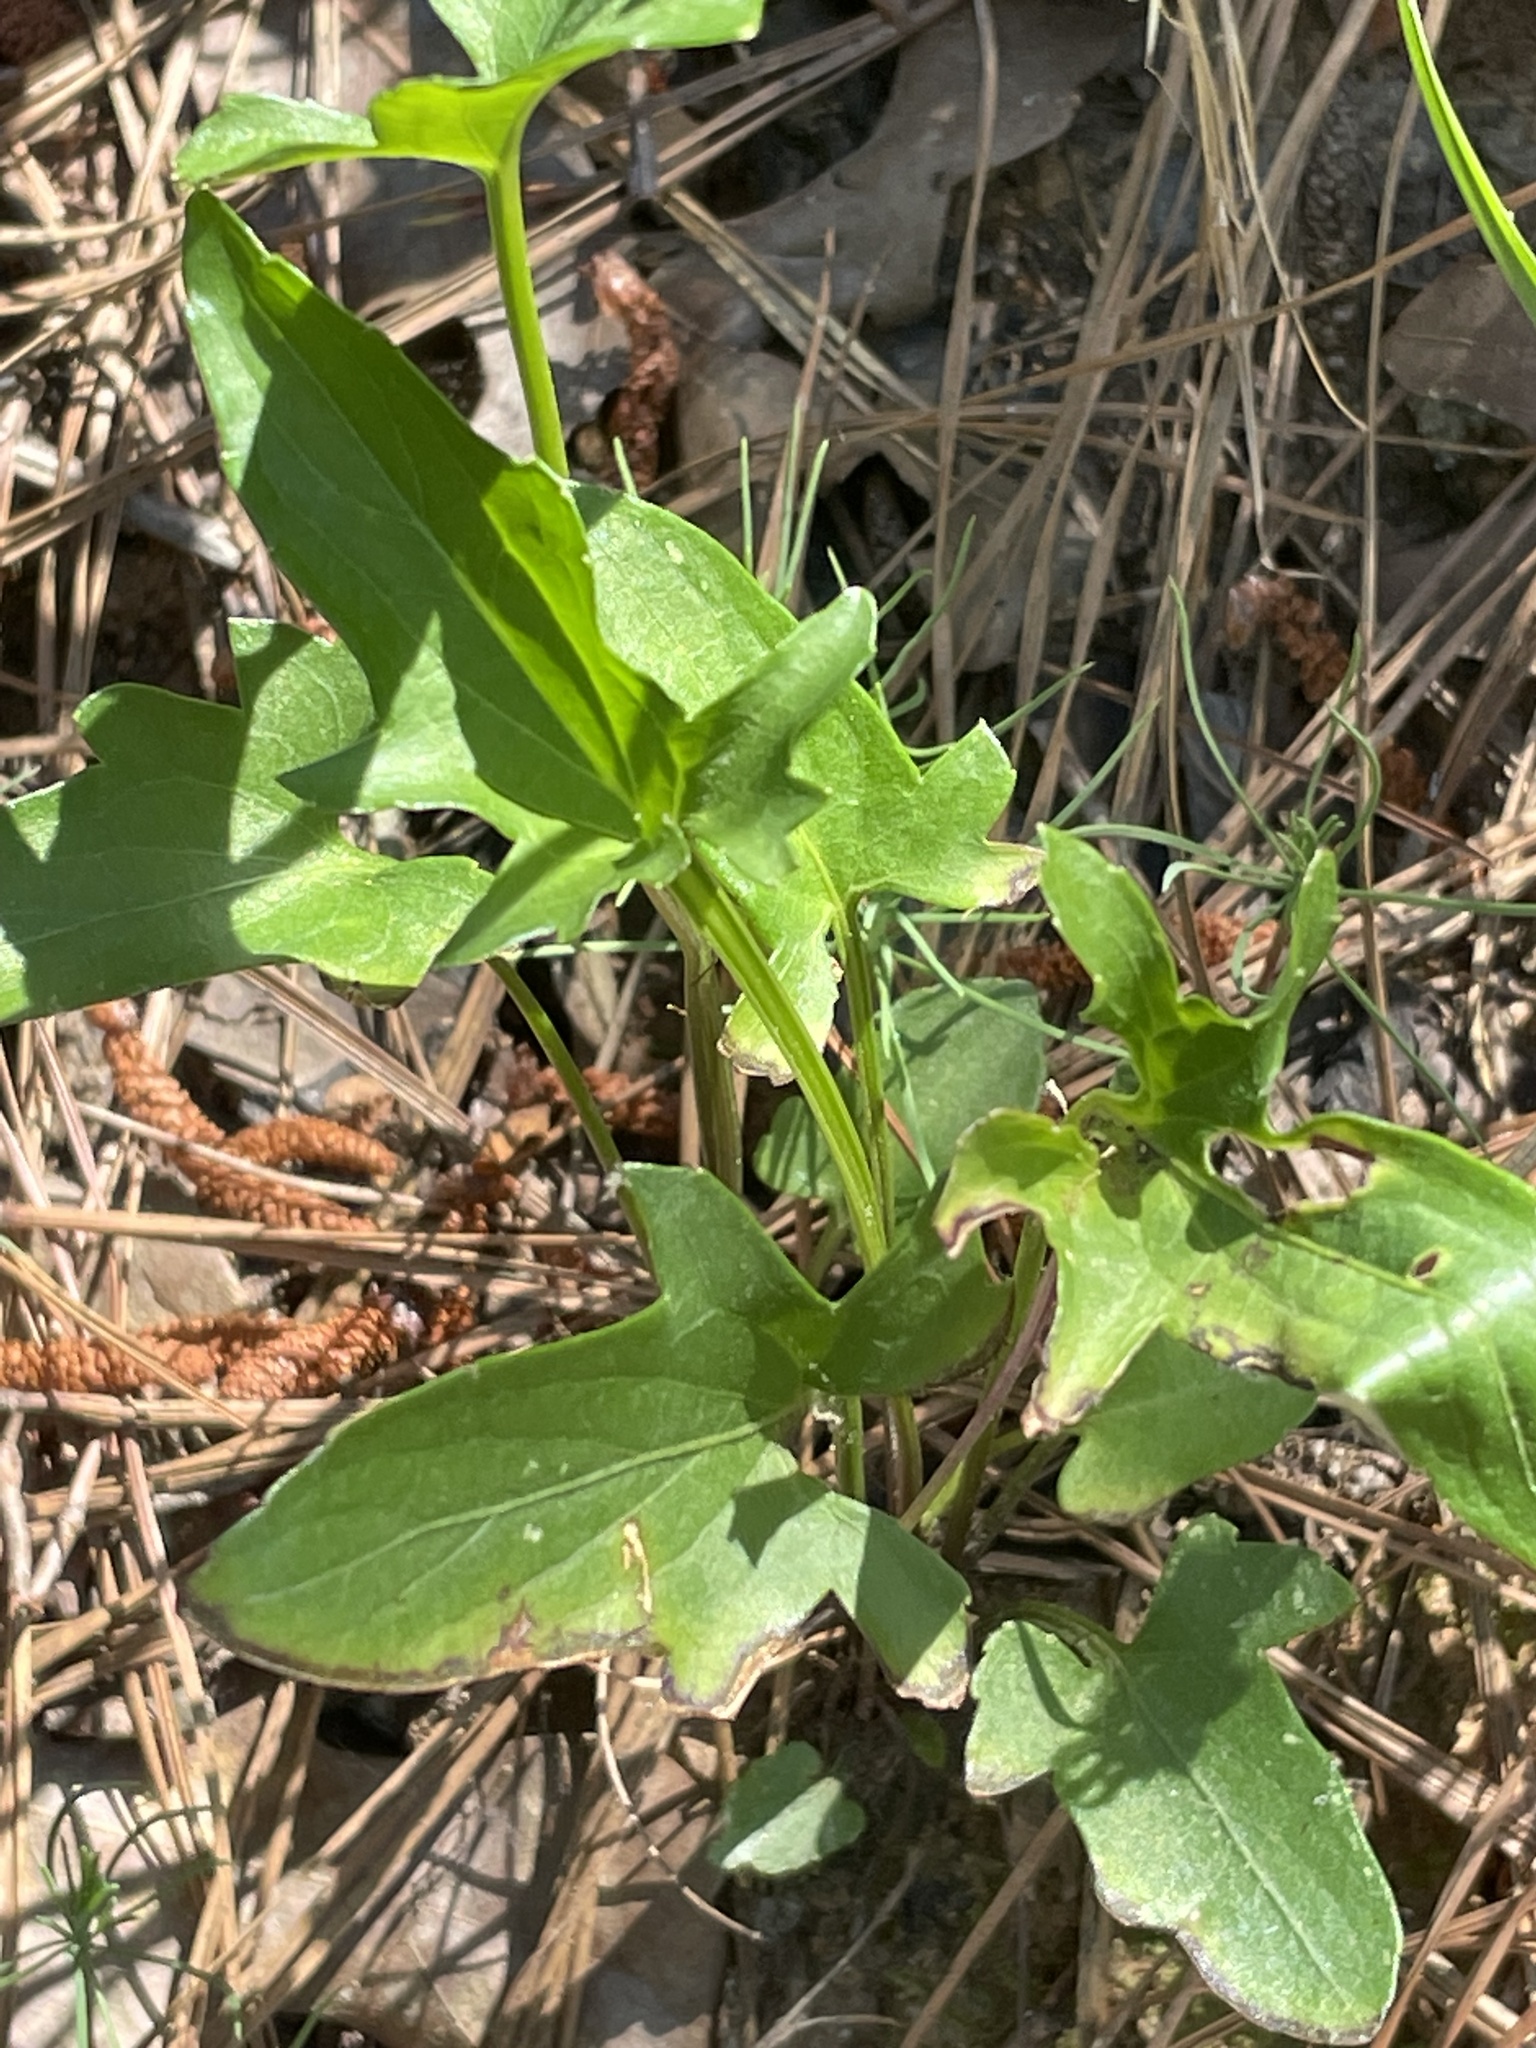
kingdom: Plantae
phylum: Tracheophyta
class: Magnoliopsida
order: Malpighiales
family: Violaceae
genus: Viola
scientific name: Viola emarginata
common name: Triangle-leaved violet
